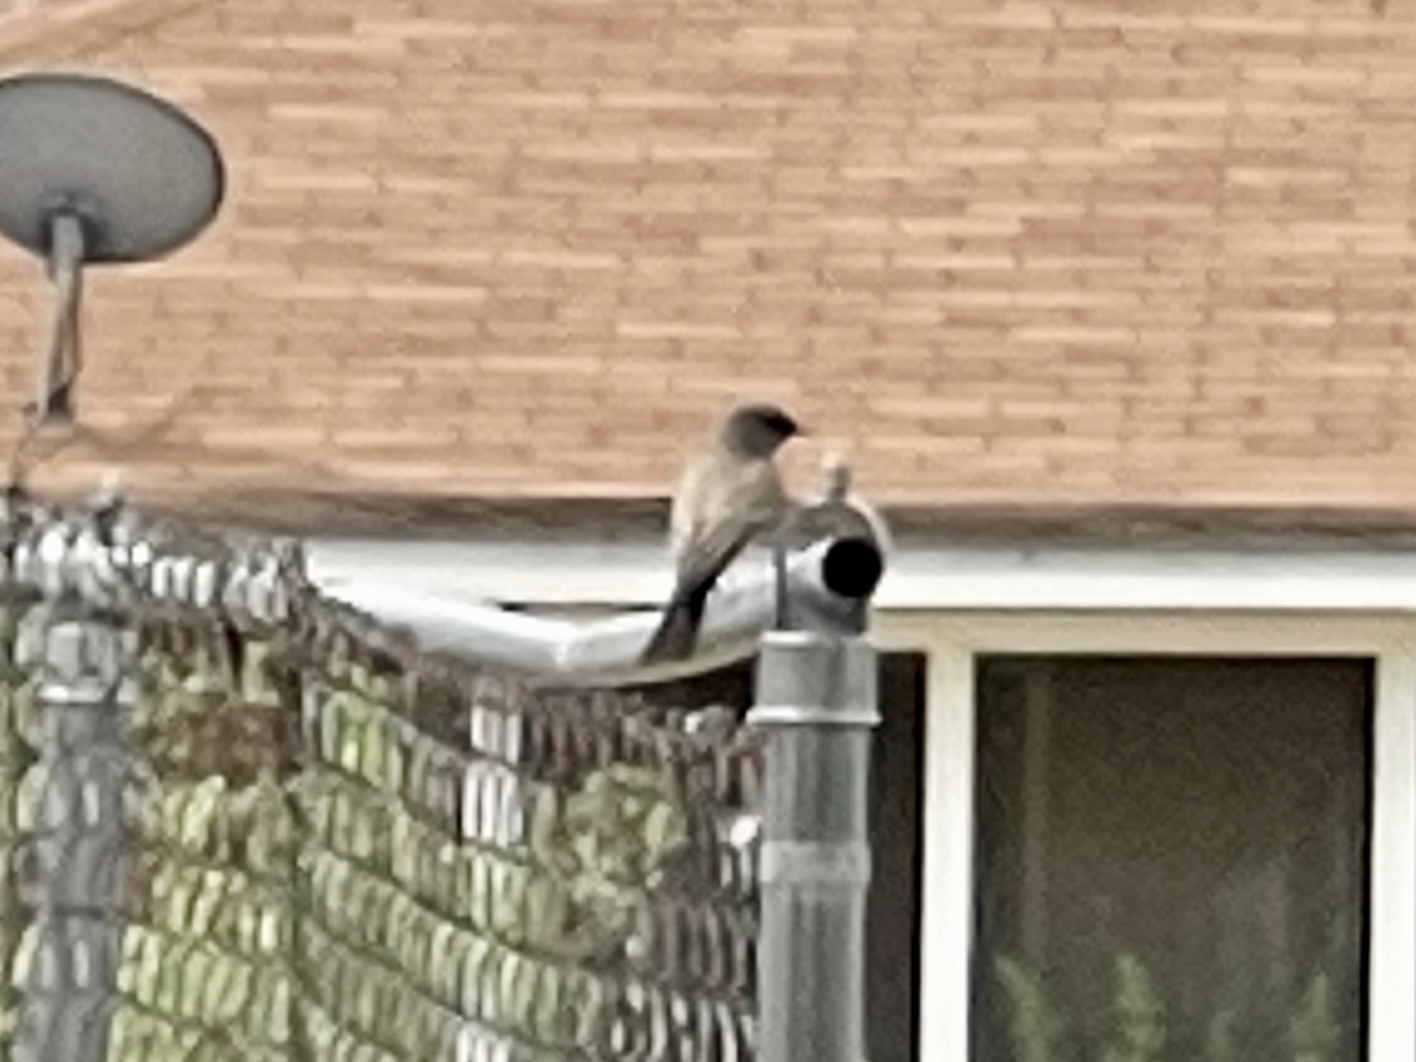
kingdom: Animalia
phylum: Chordata
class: Aves
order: Passeriformes
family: Tyrannidae
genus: Sayornis
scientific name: Sayornis saya
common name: Say's phoebe
